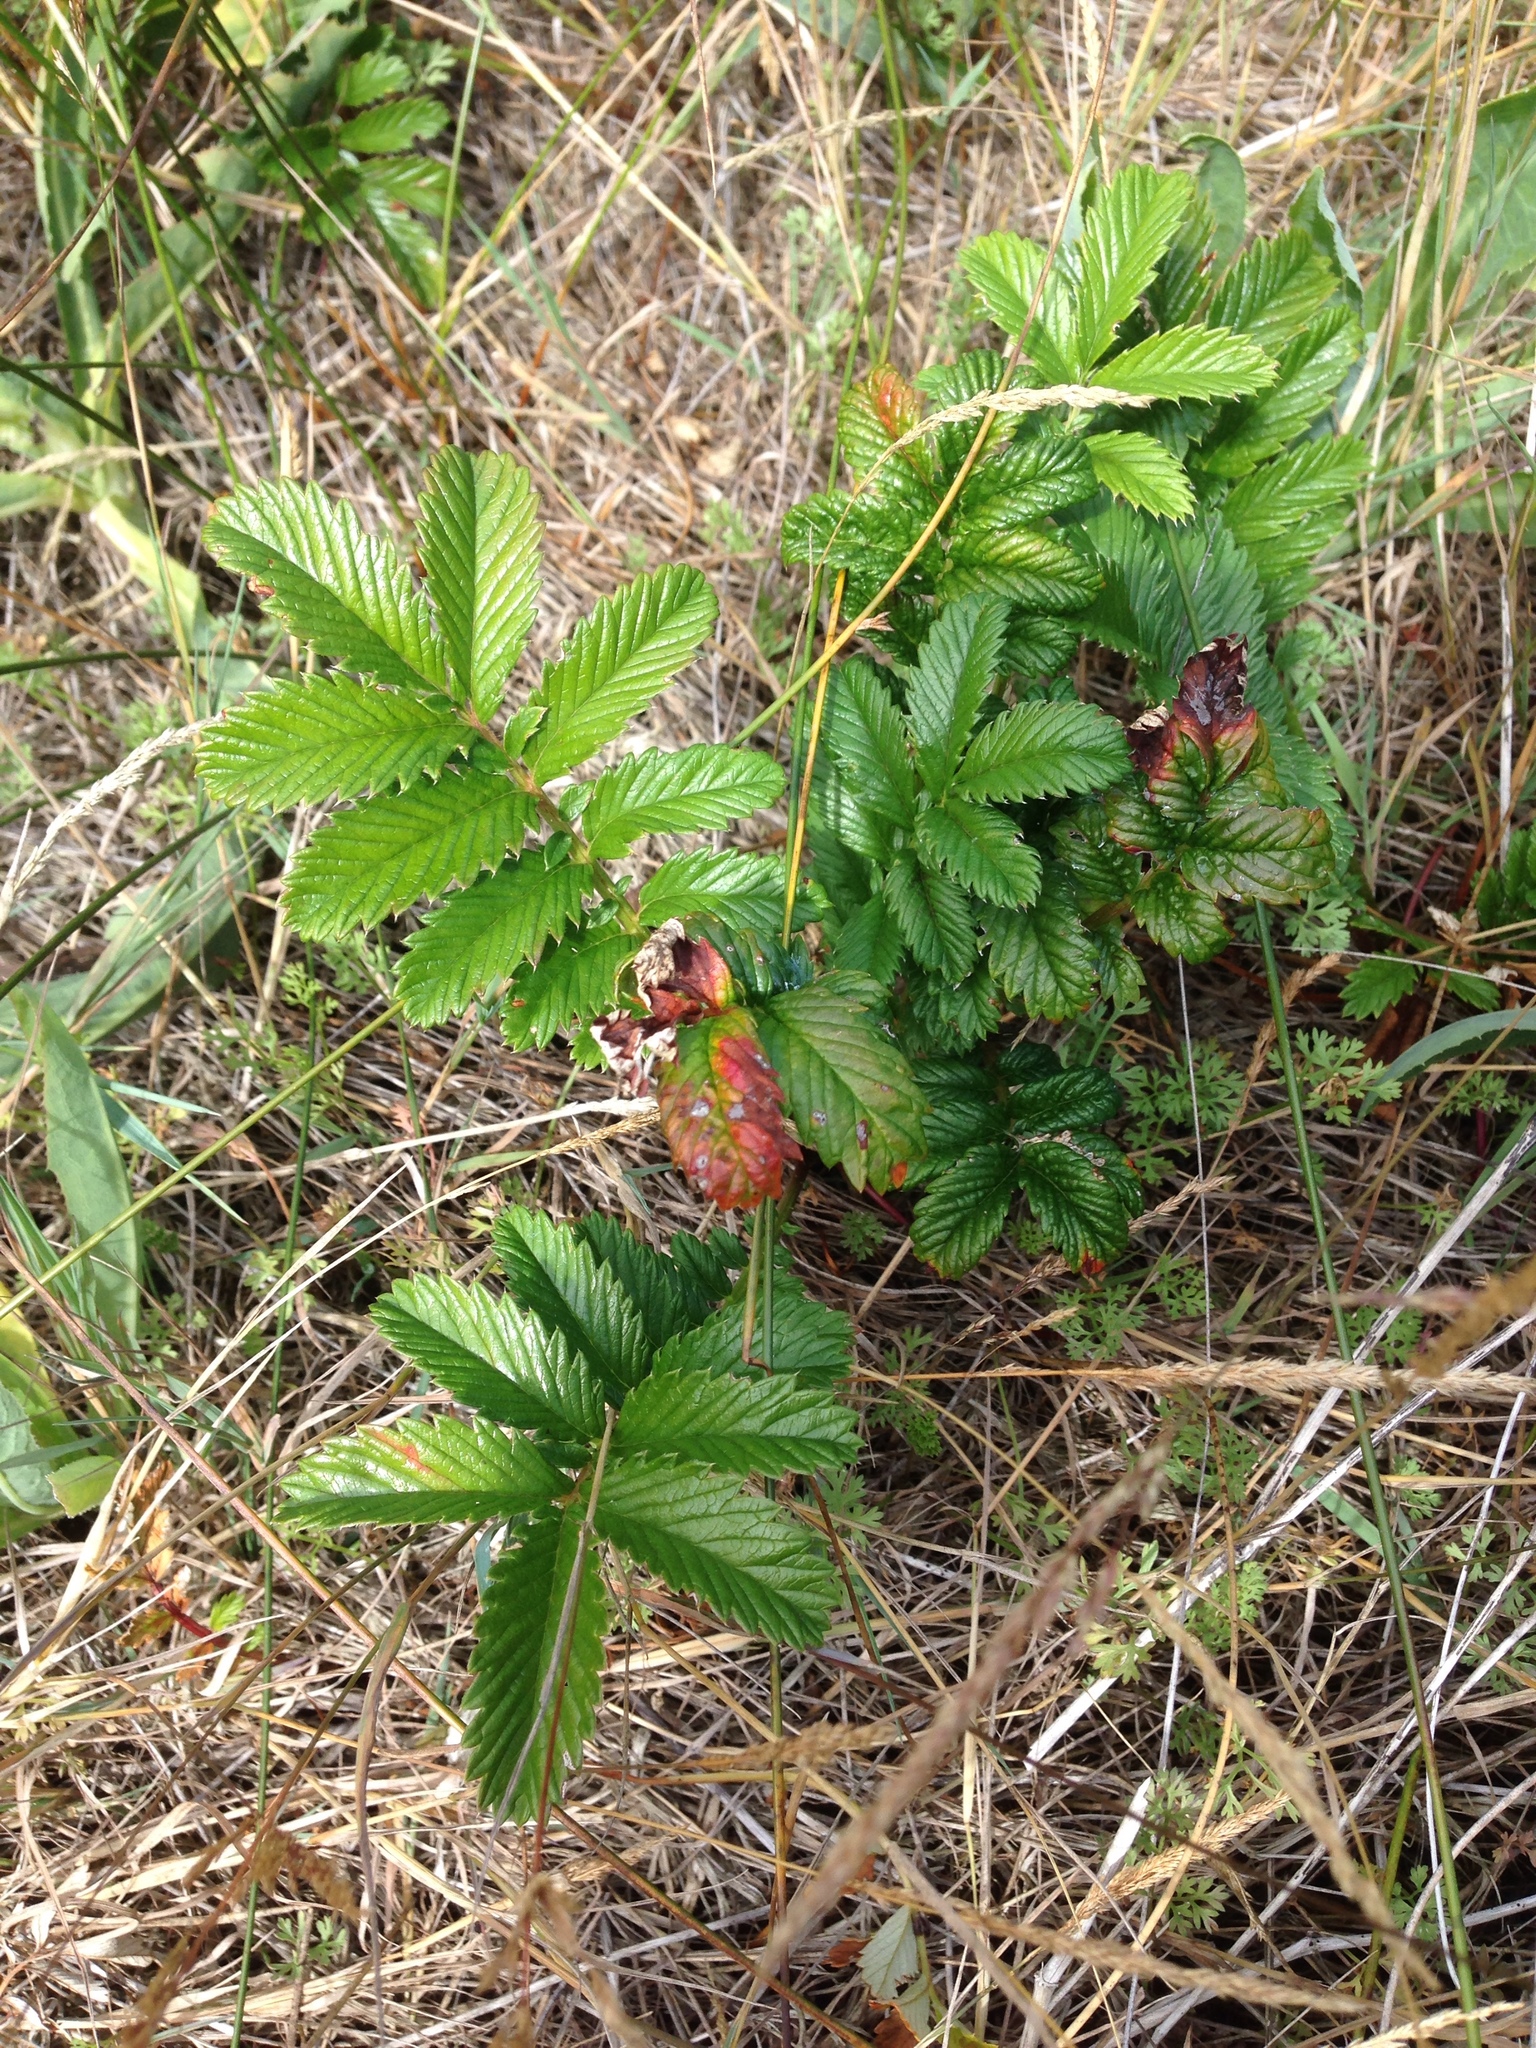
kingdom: Plantae
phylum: Tracheophyta
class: Magnoliopsida
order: Rosales
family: Rosaceae
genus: Argentina
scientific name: Argentina anserina
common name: Common silverweed
